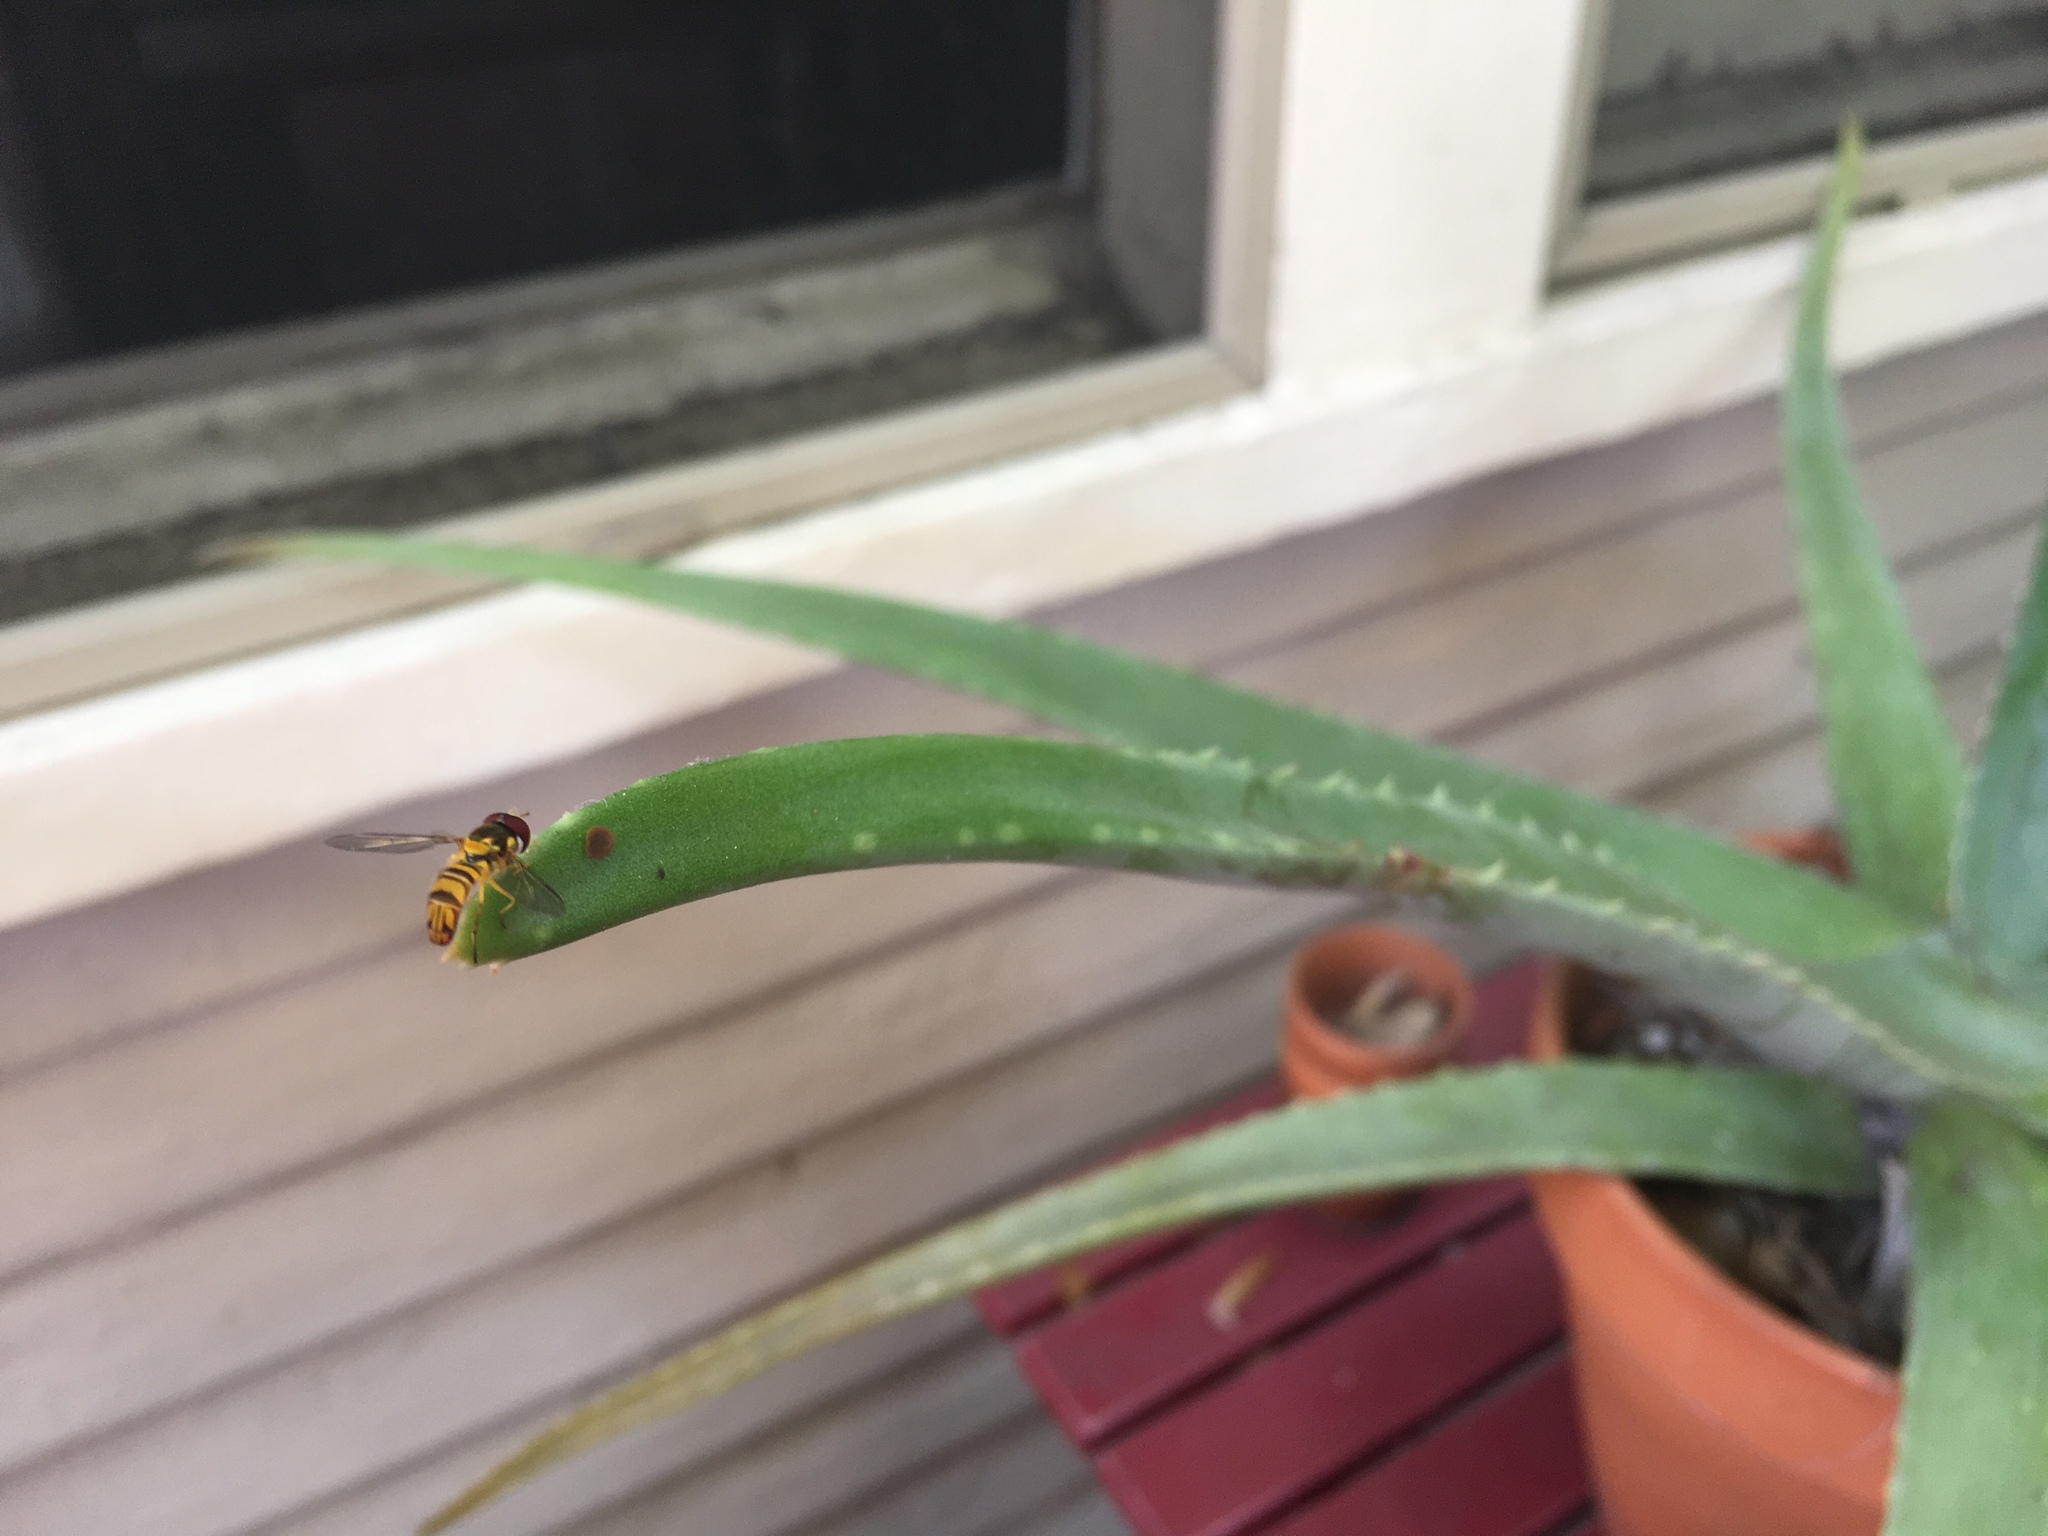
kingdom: Animalia
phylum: Arthropoda
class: Insecta
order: Diptera
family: Syrphidae
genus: Allograpta
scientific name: Allograpta obliqua
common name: Common oblique syrphid
